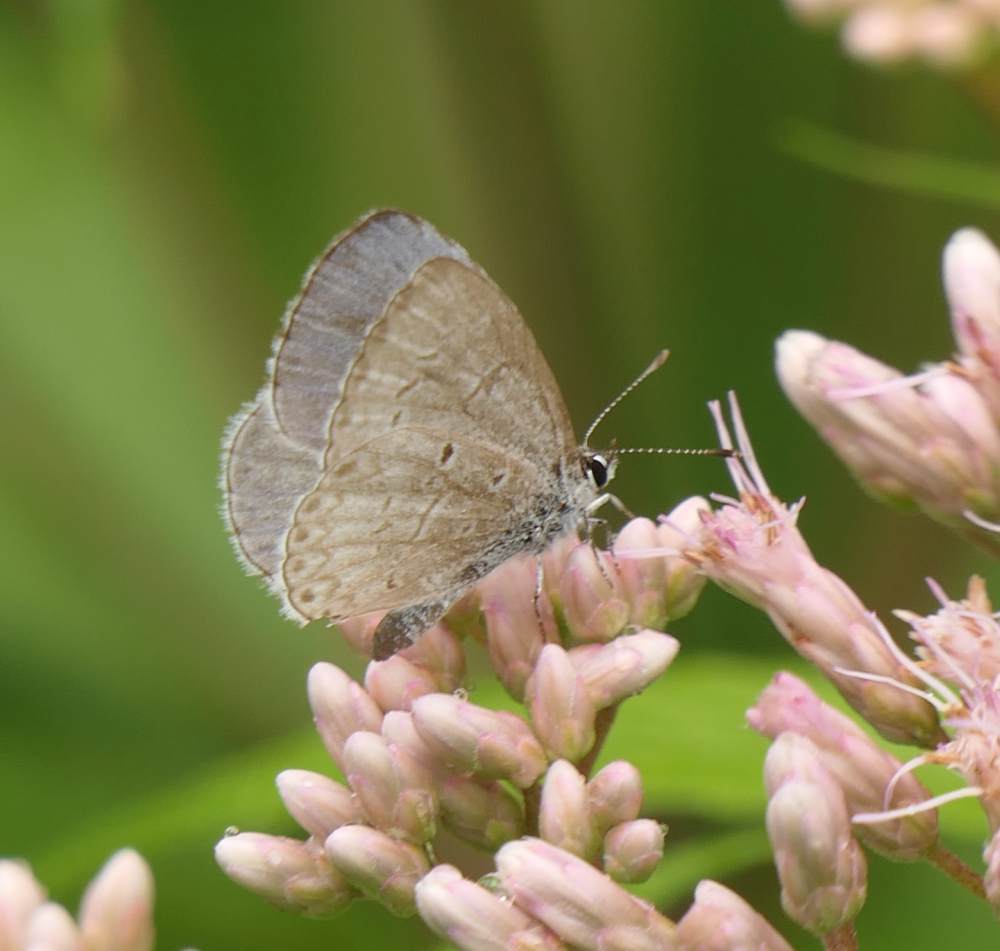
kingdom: Animalia
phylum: Arthropoda
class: Insecta
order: Lepidoptera
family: Lycaenidae
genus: Celastrina
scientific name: Celastrina lucia
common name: Lucia azure
